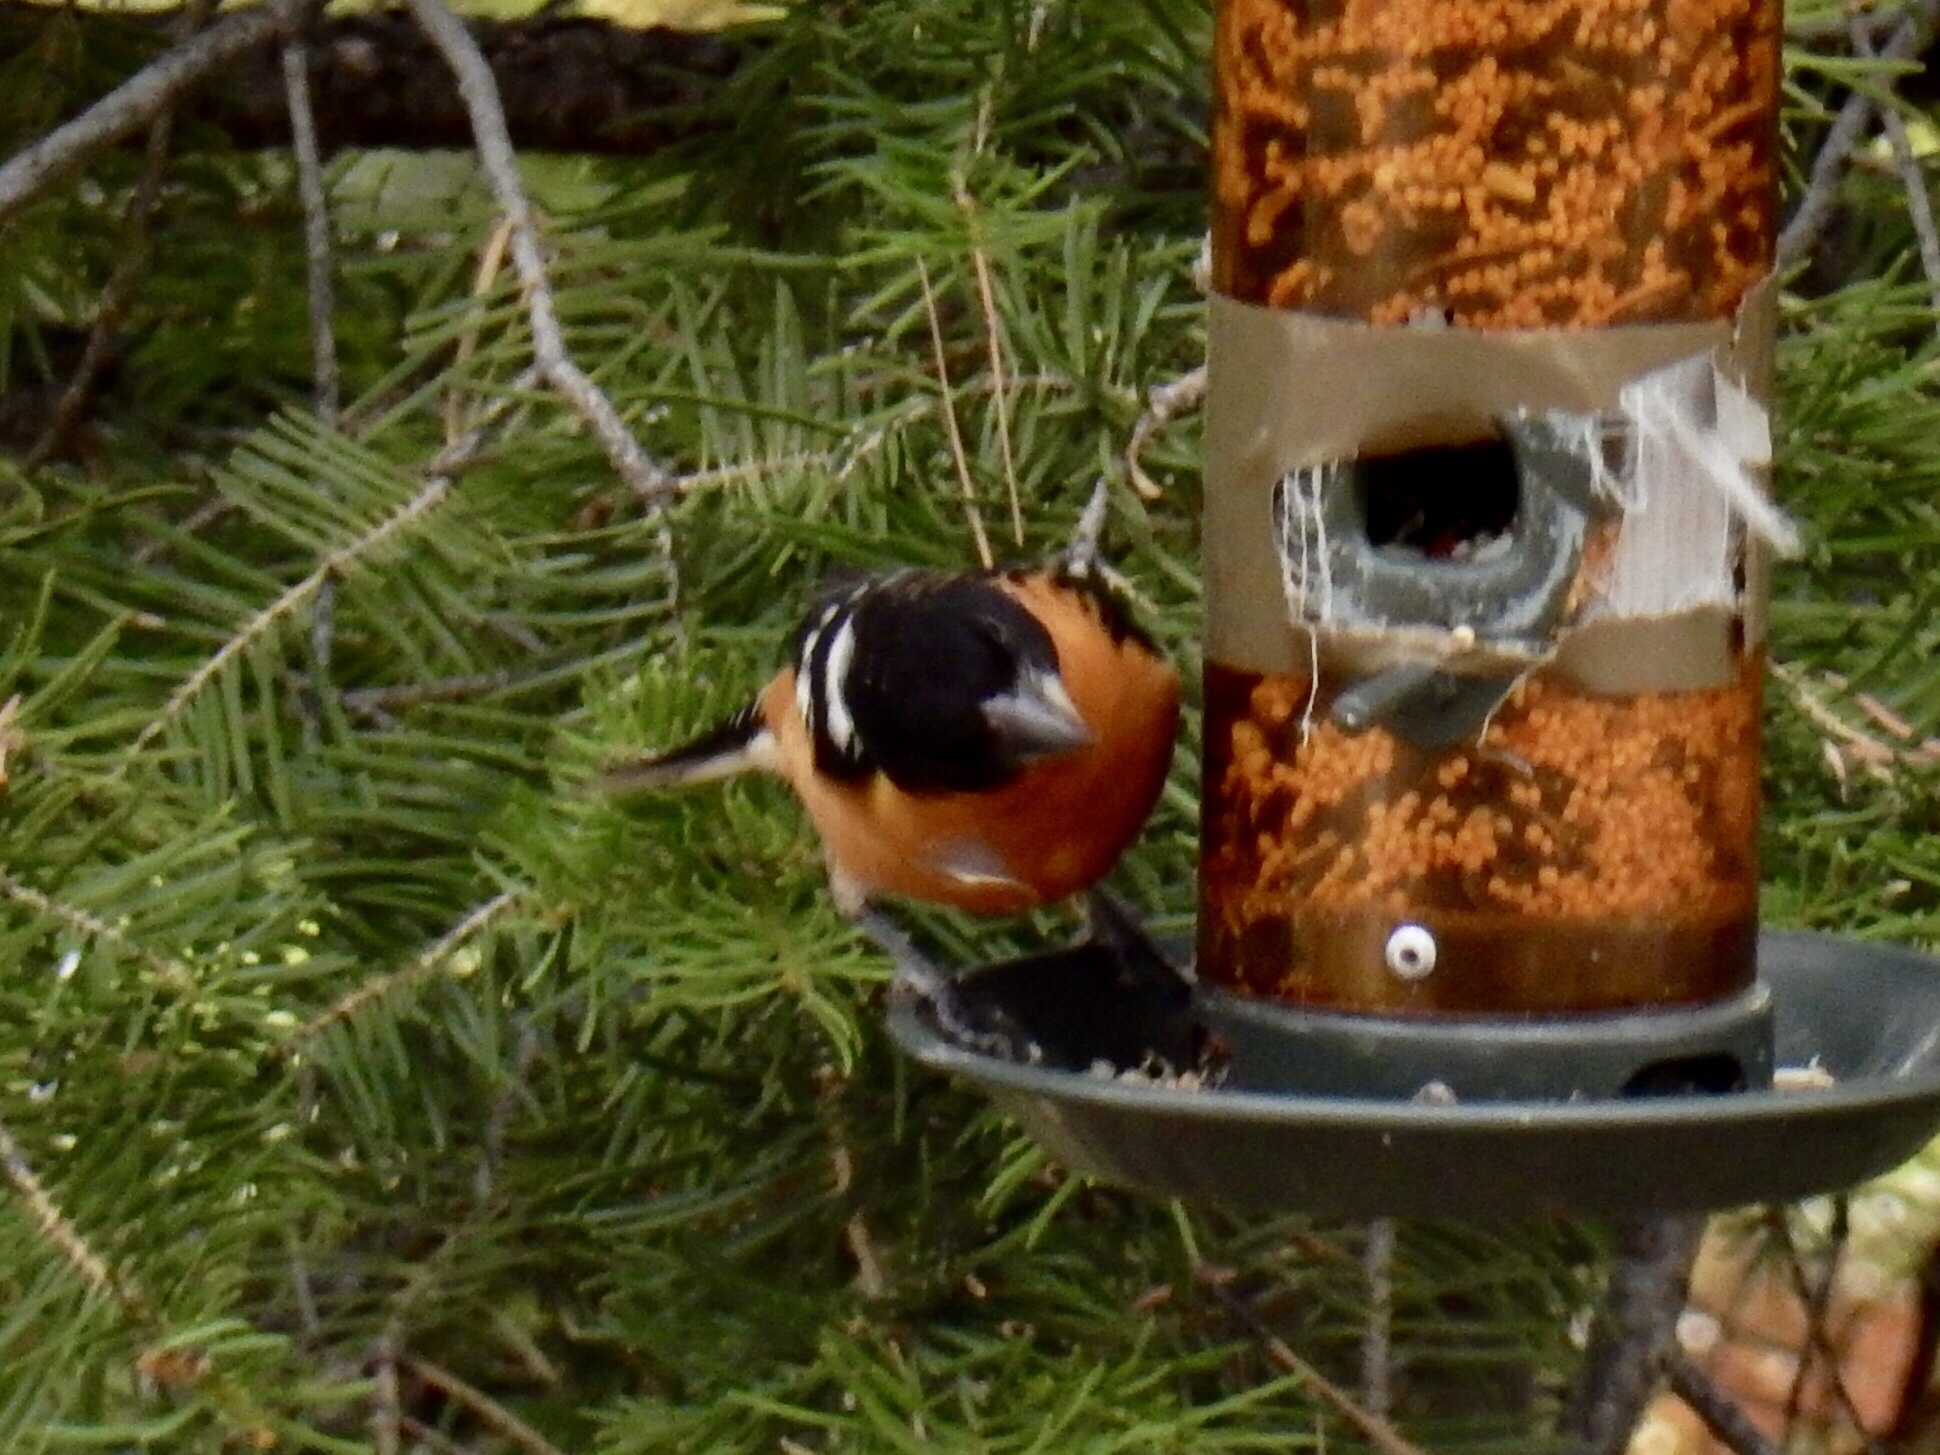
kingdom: Animalia
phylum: Chordata
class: Aves
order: Passeriformes
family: Cardinalidae
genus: Pheucticus
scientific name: Pheucticus melanocephalus
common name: Black-headed grosbeak
